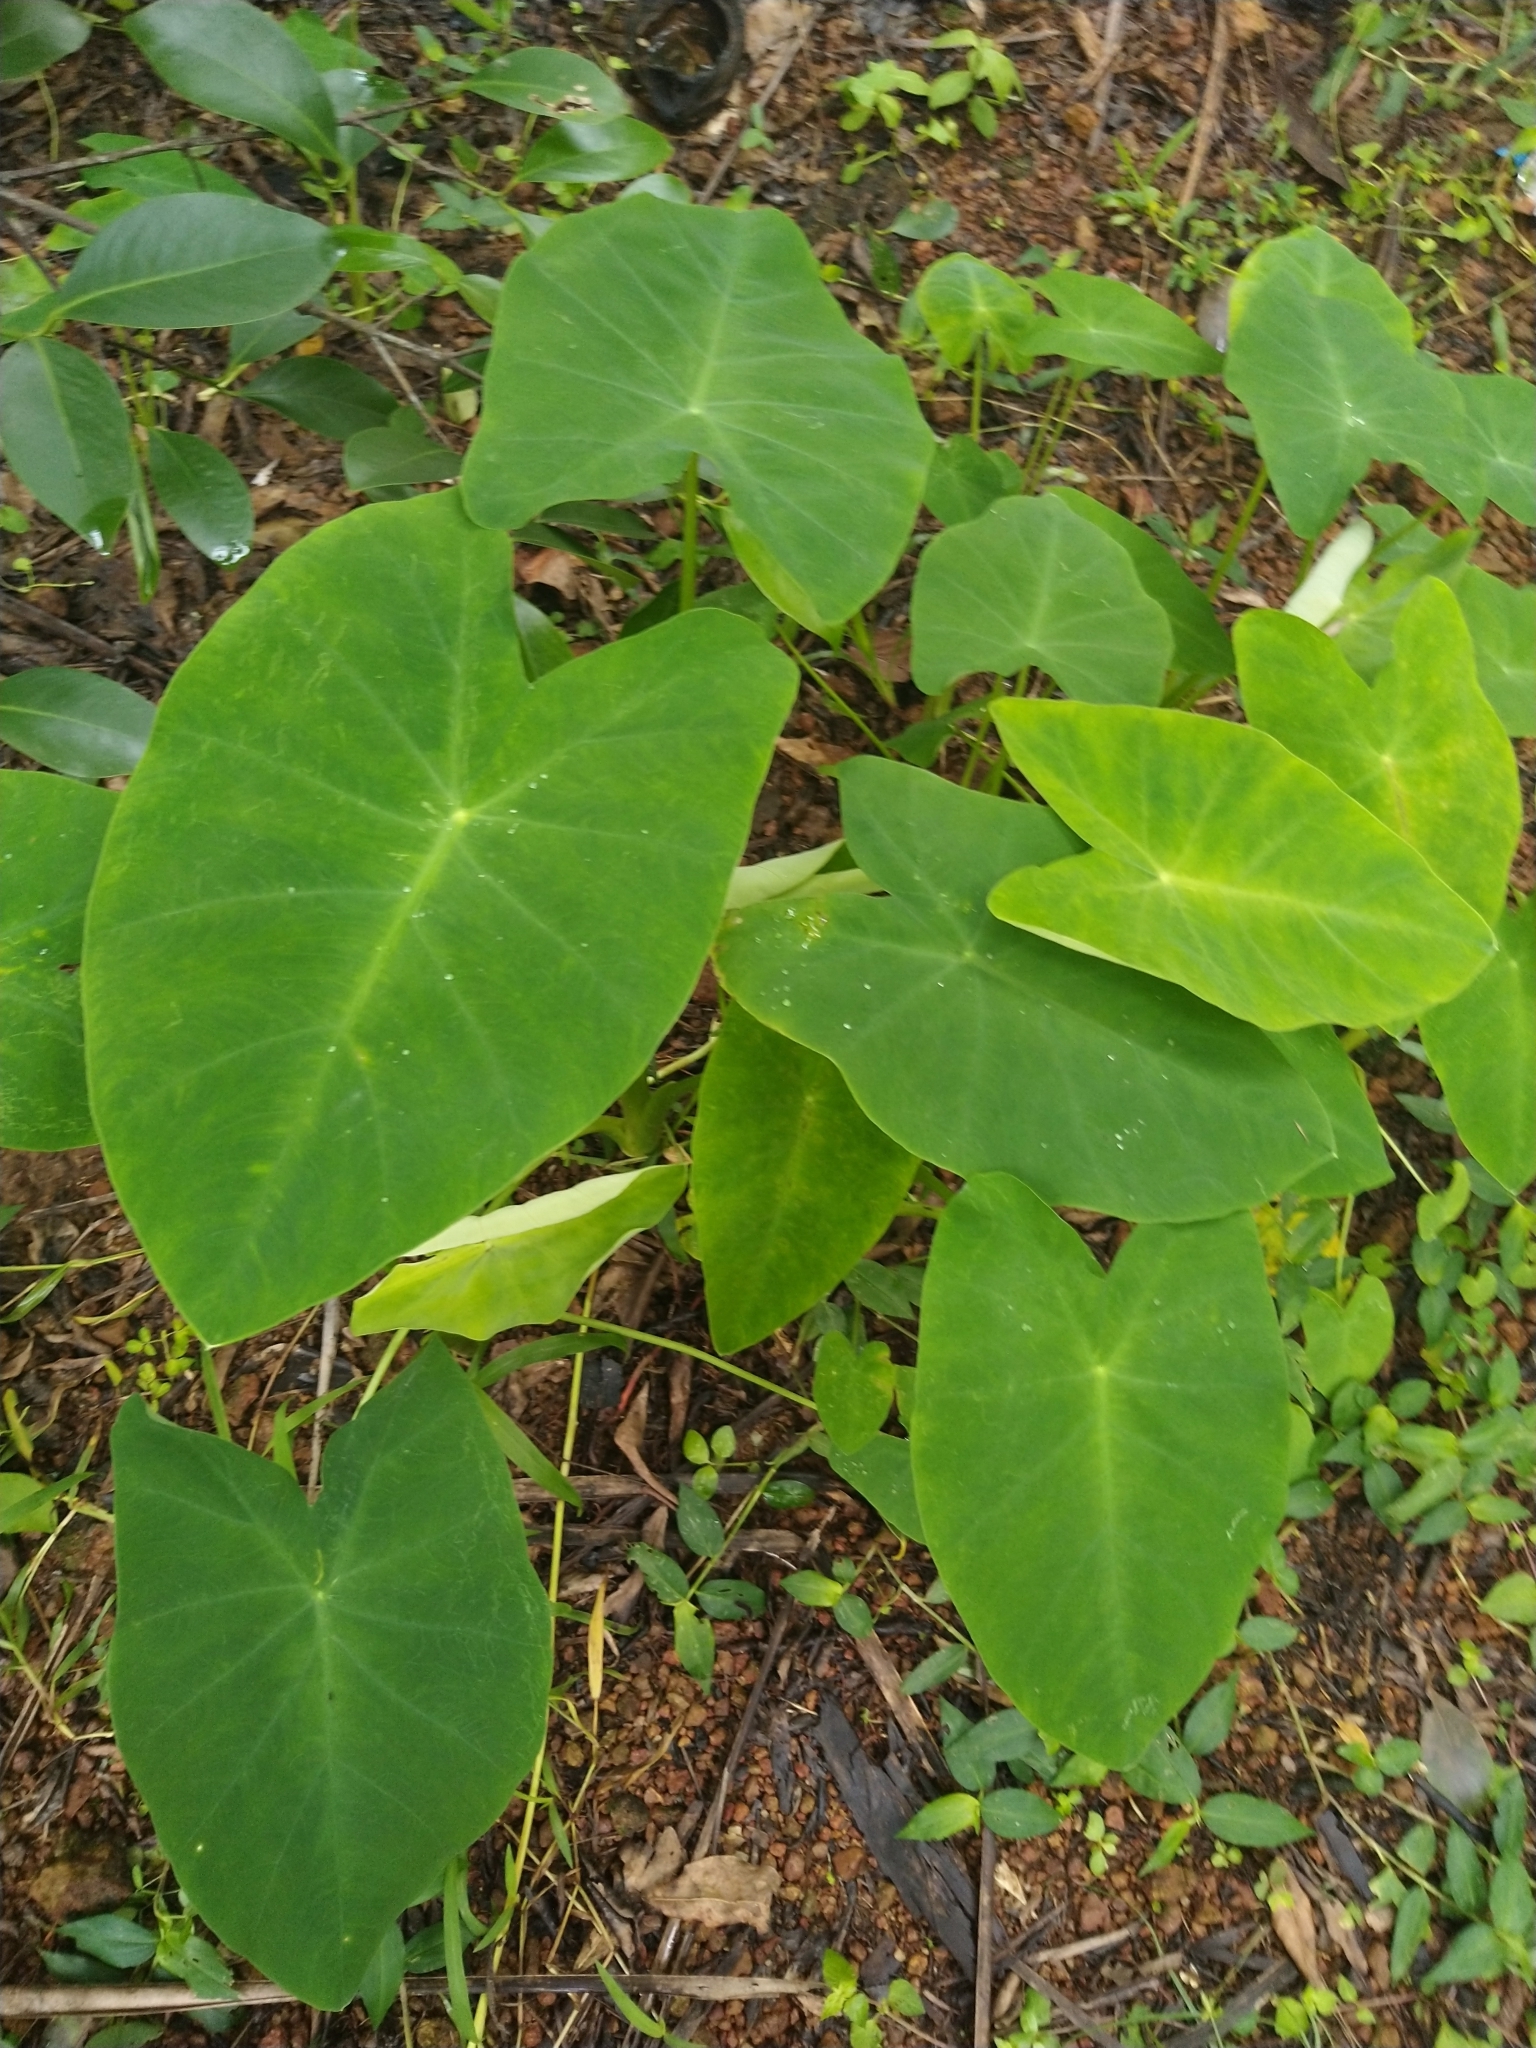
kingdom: Plantae
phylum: Tracheophyta
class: Liliopsida
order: Alismatales
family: Araceae
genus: Colocasia
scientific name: Colocasia esculenta
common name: Taro
